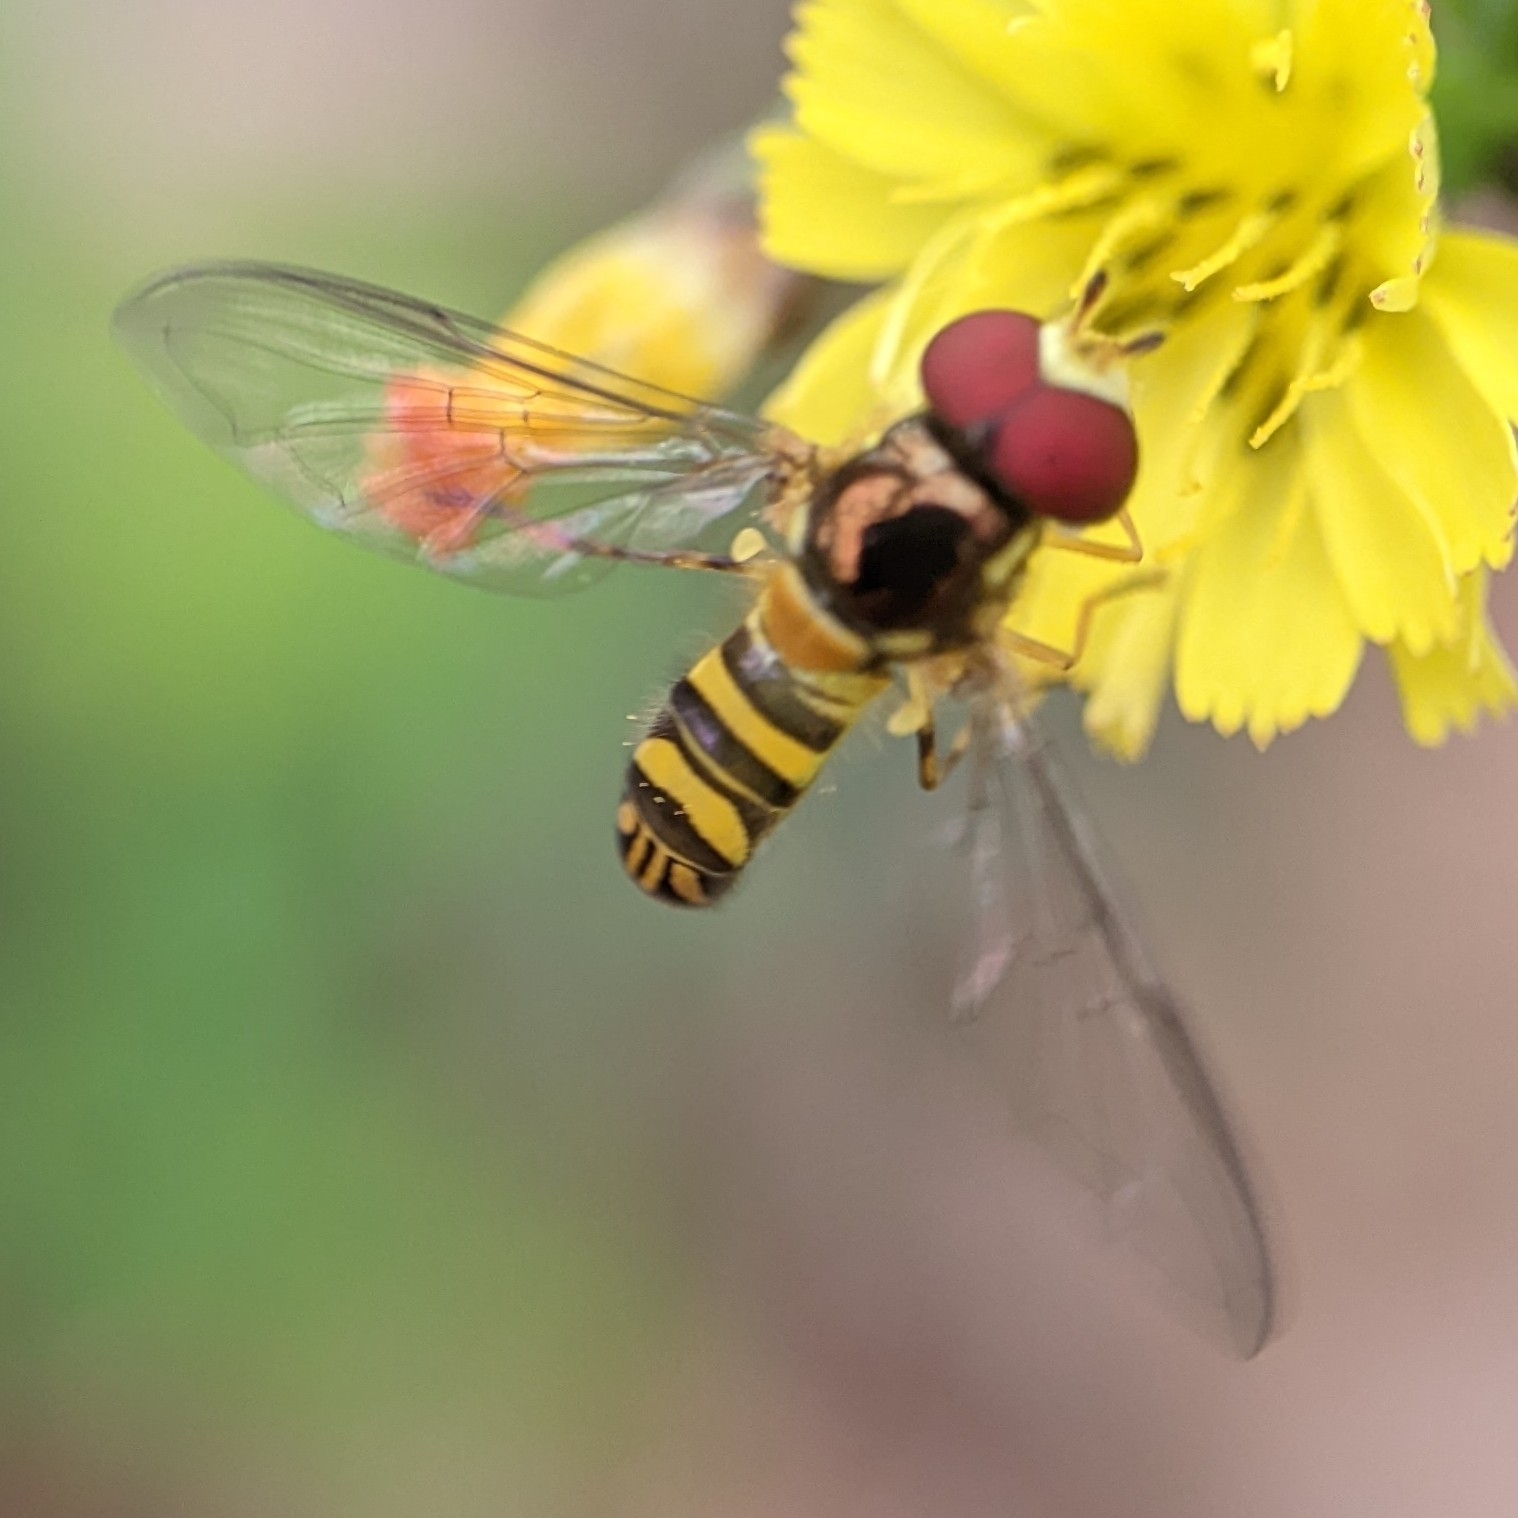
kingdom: Animalia
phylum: Arthropoda
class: Insecta
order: Diptera
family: Syrphidae
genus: Allograpta
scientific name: Allograpta obliqua
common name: Common oblique syrphid
